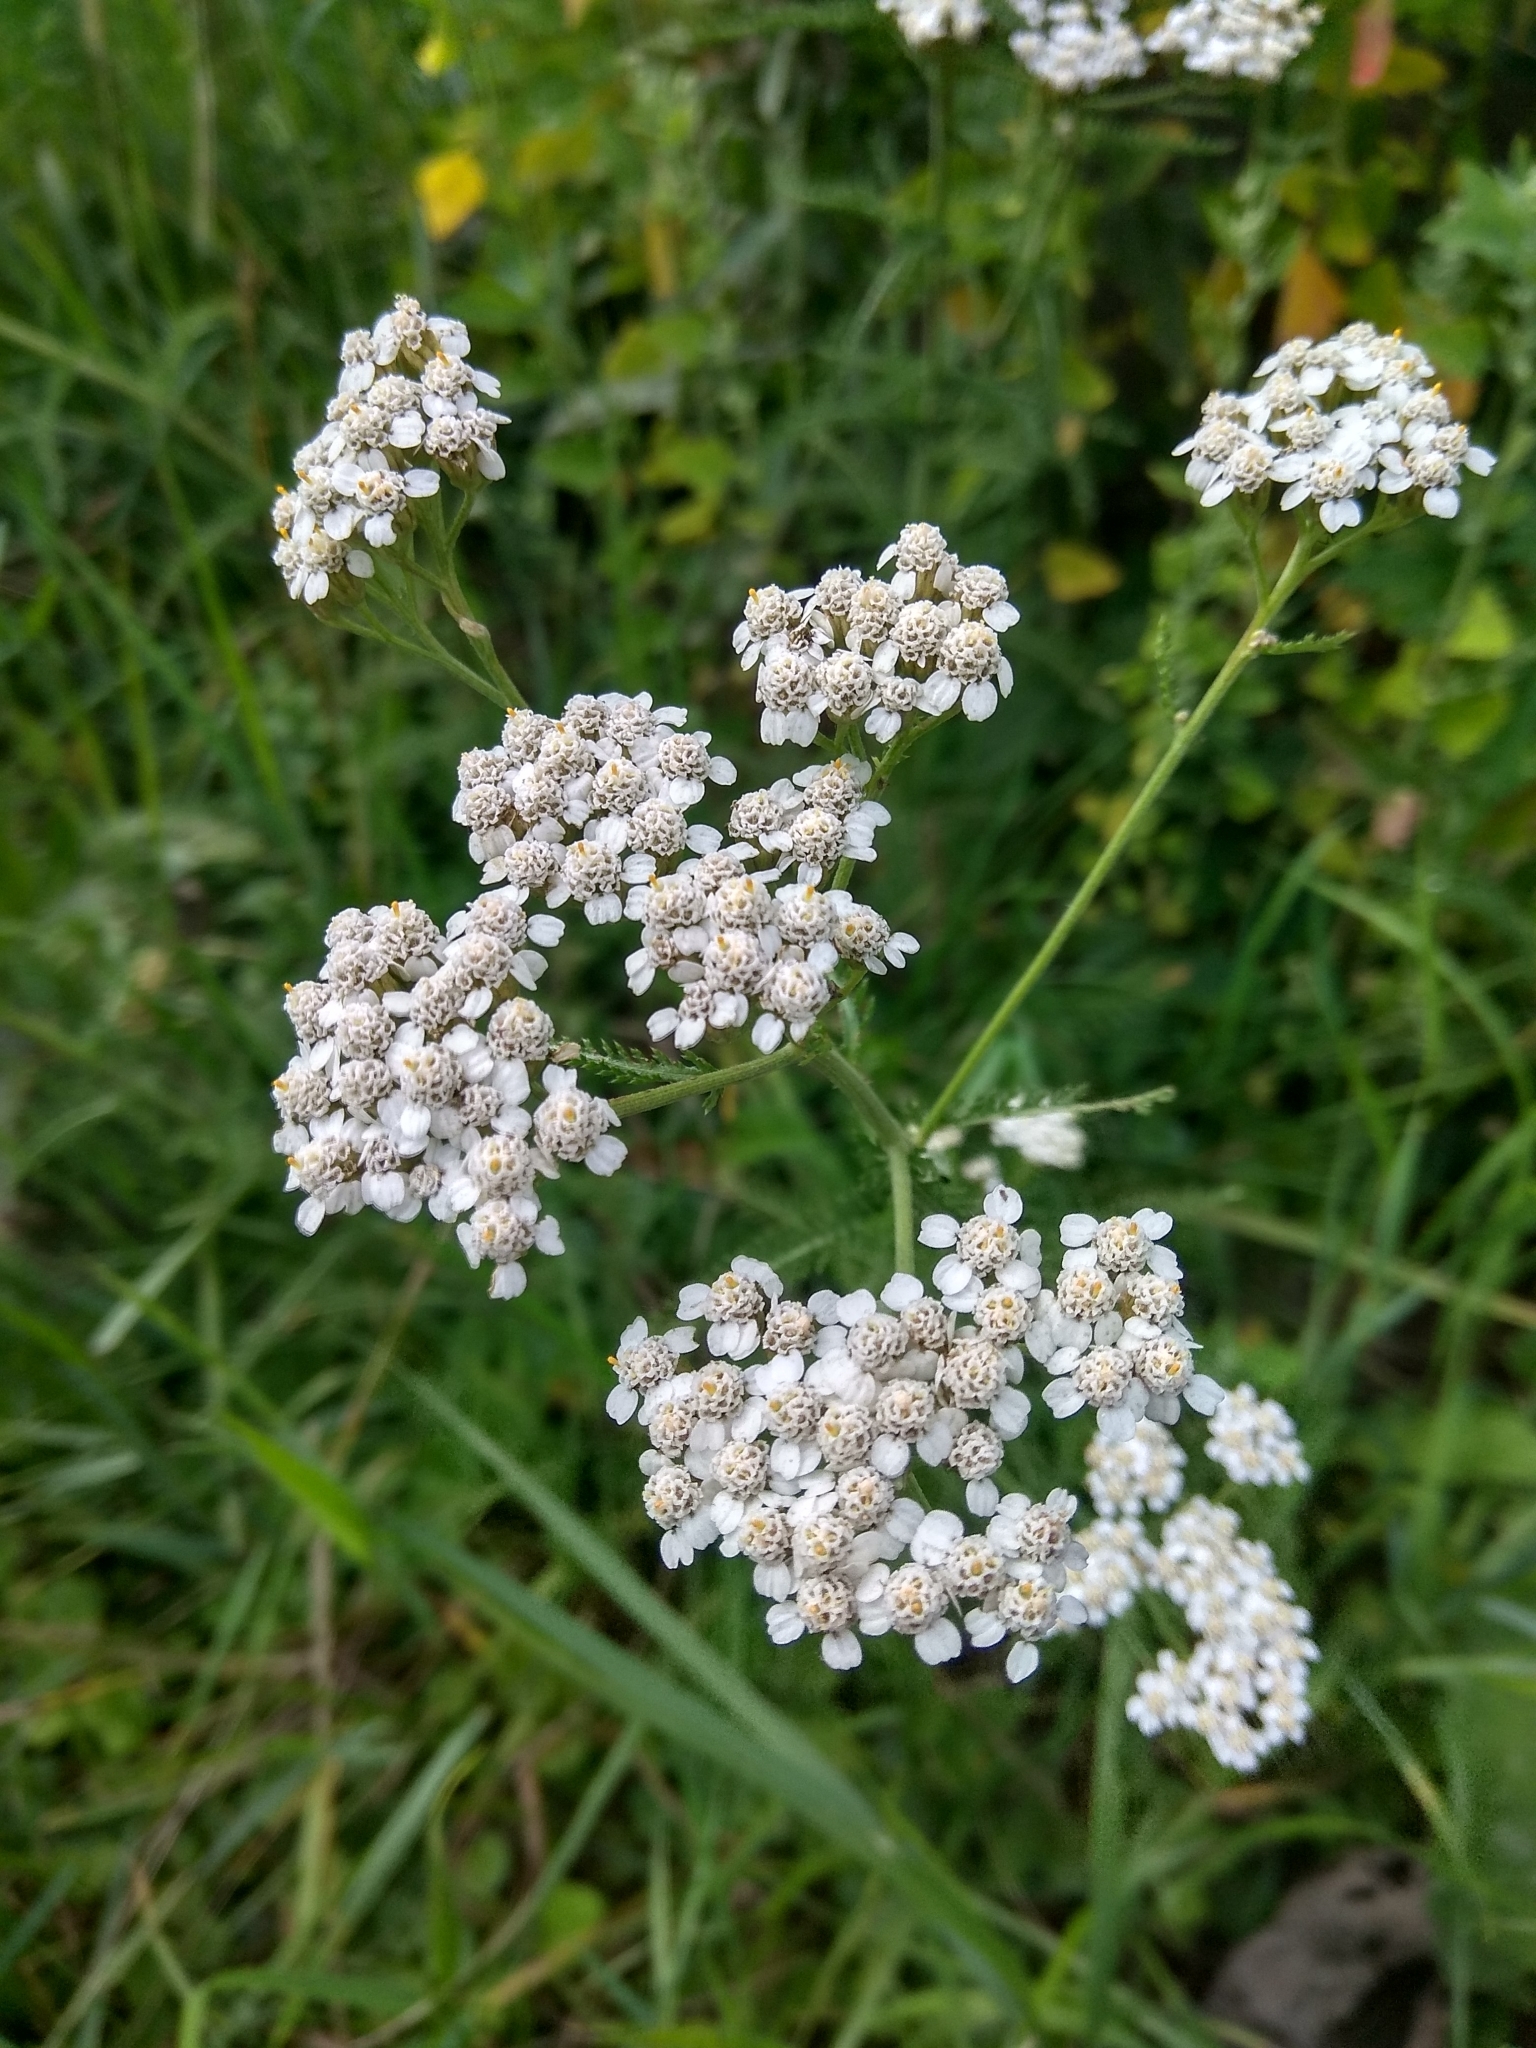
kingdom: Plantae
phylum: Tracheophyta
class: Magnoliopsida
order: Asterales
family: Asteraceae
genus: Achillea
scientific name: Achillea millefolium
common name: Yarrow
